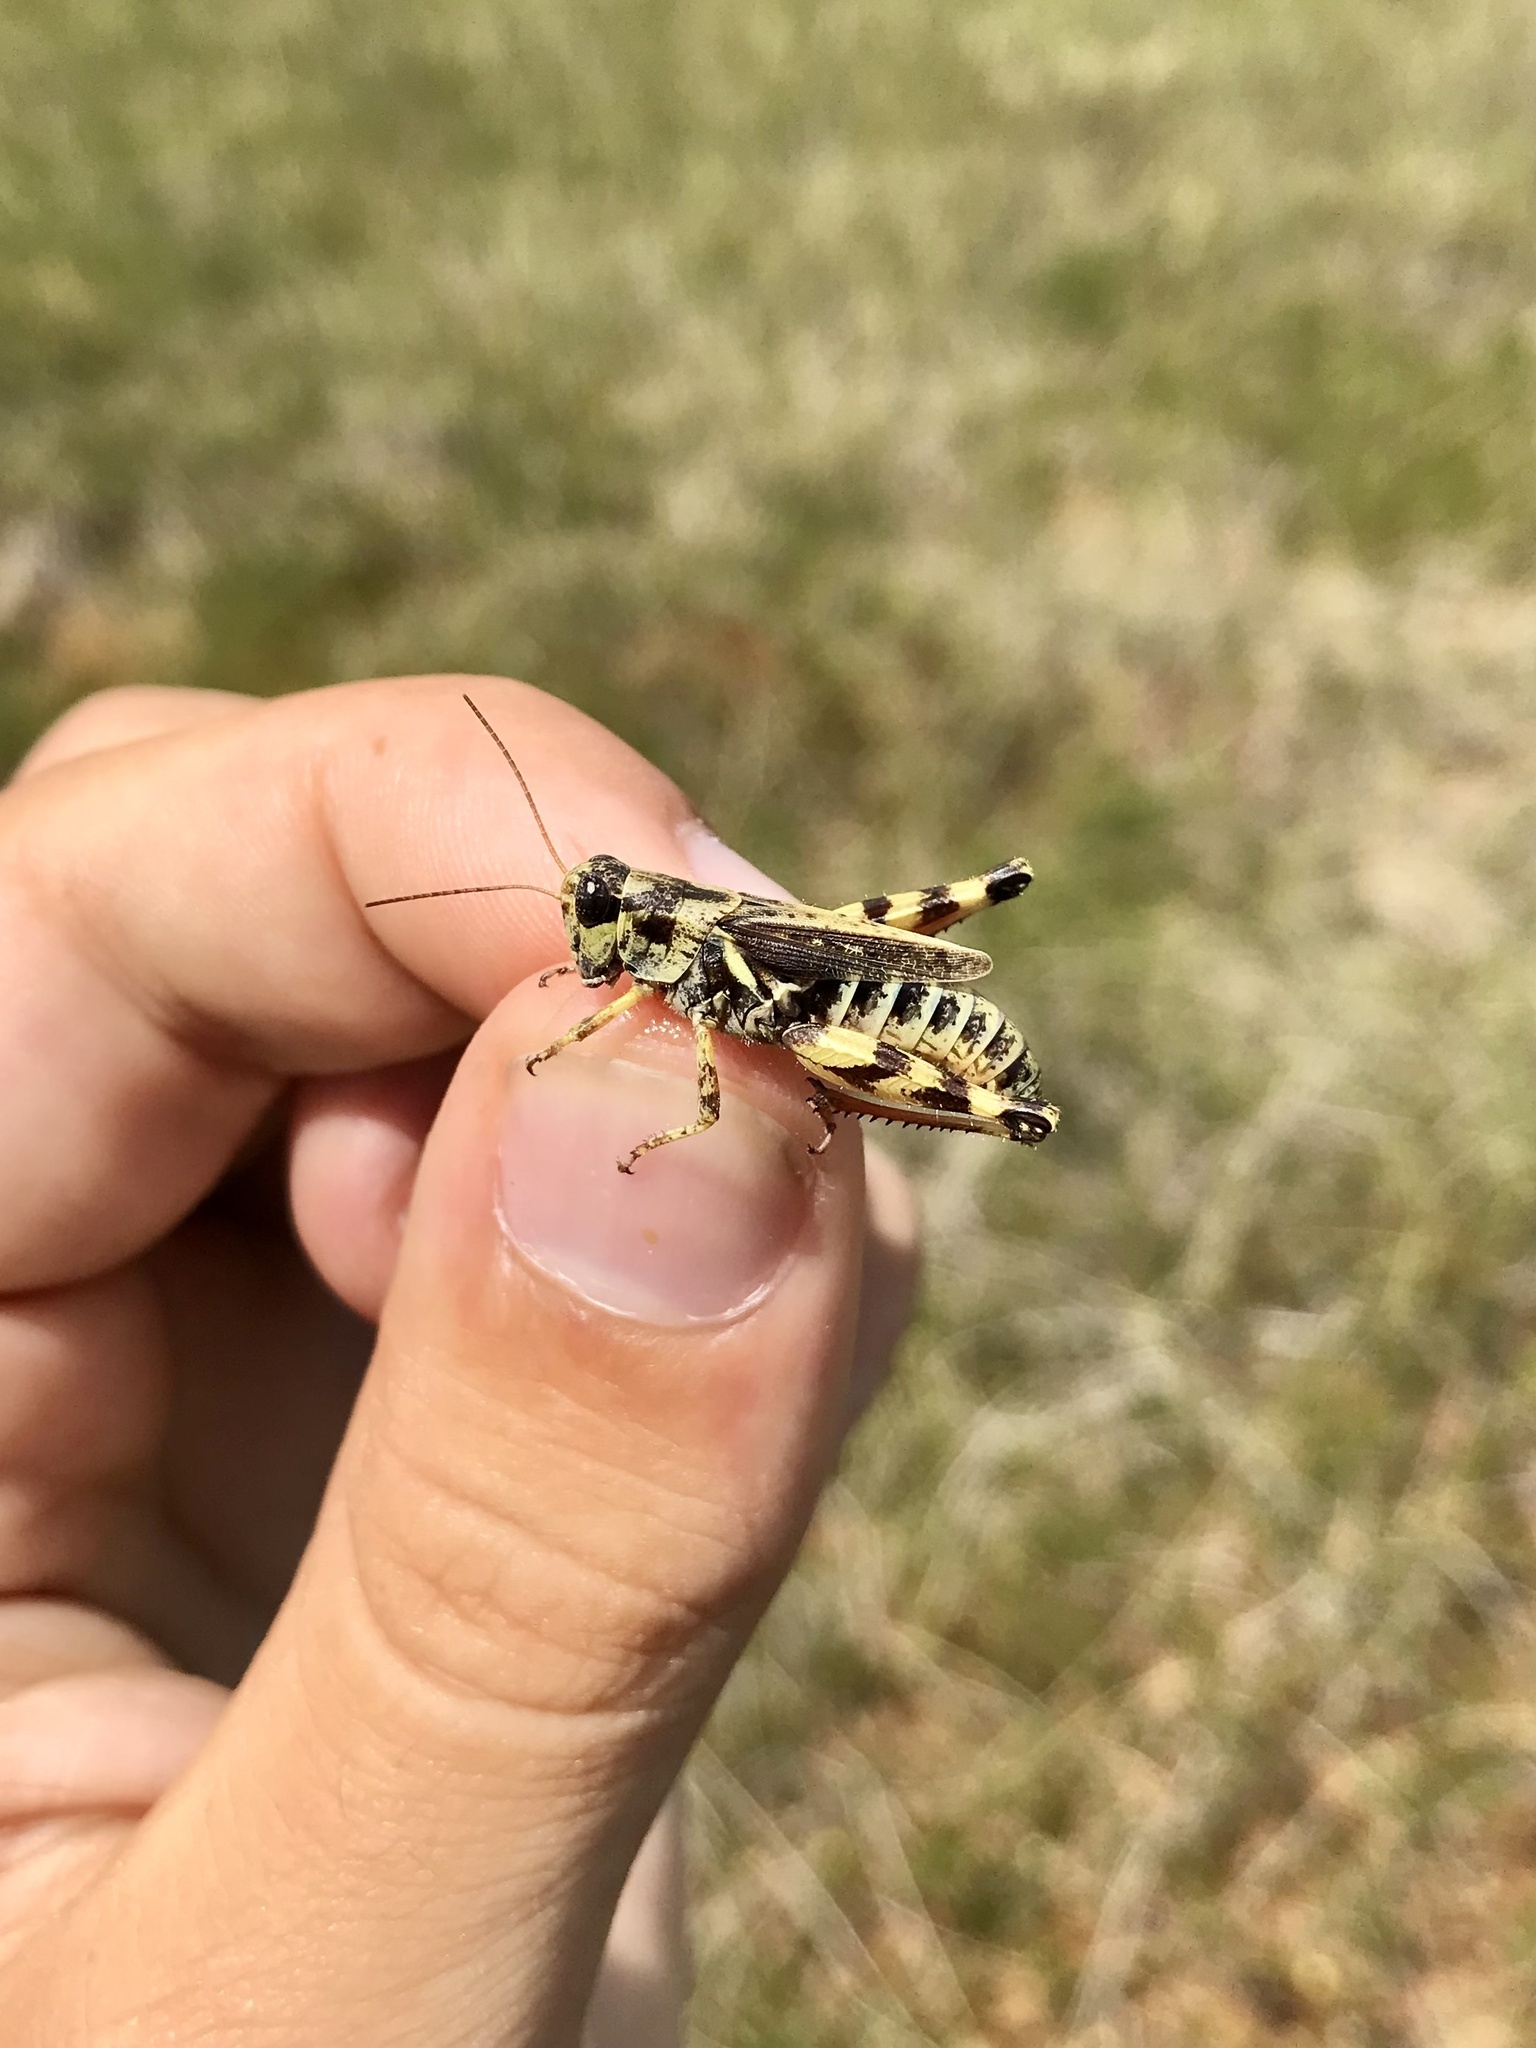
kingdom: Animalia
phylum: Arthropoda
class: Insecta
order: Orthoptera
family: Acrididae
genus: Melanoplus
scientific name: Melanoplus fasciatus
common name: Huckleberry locust
